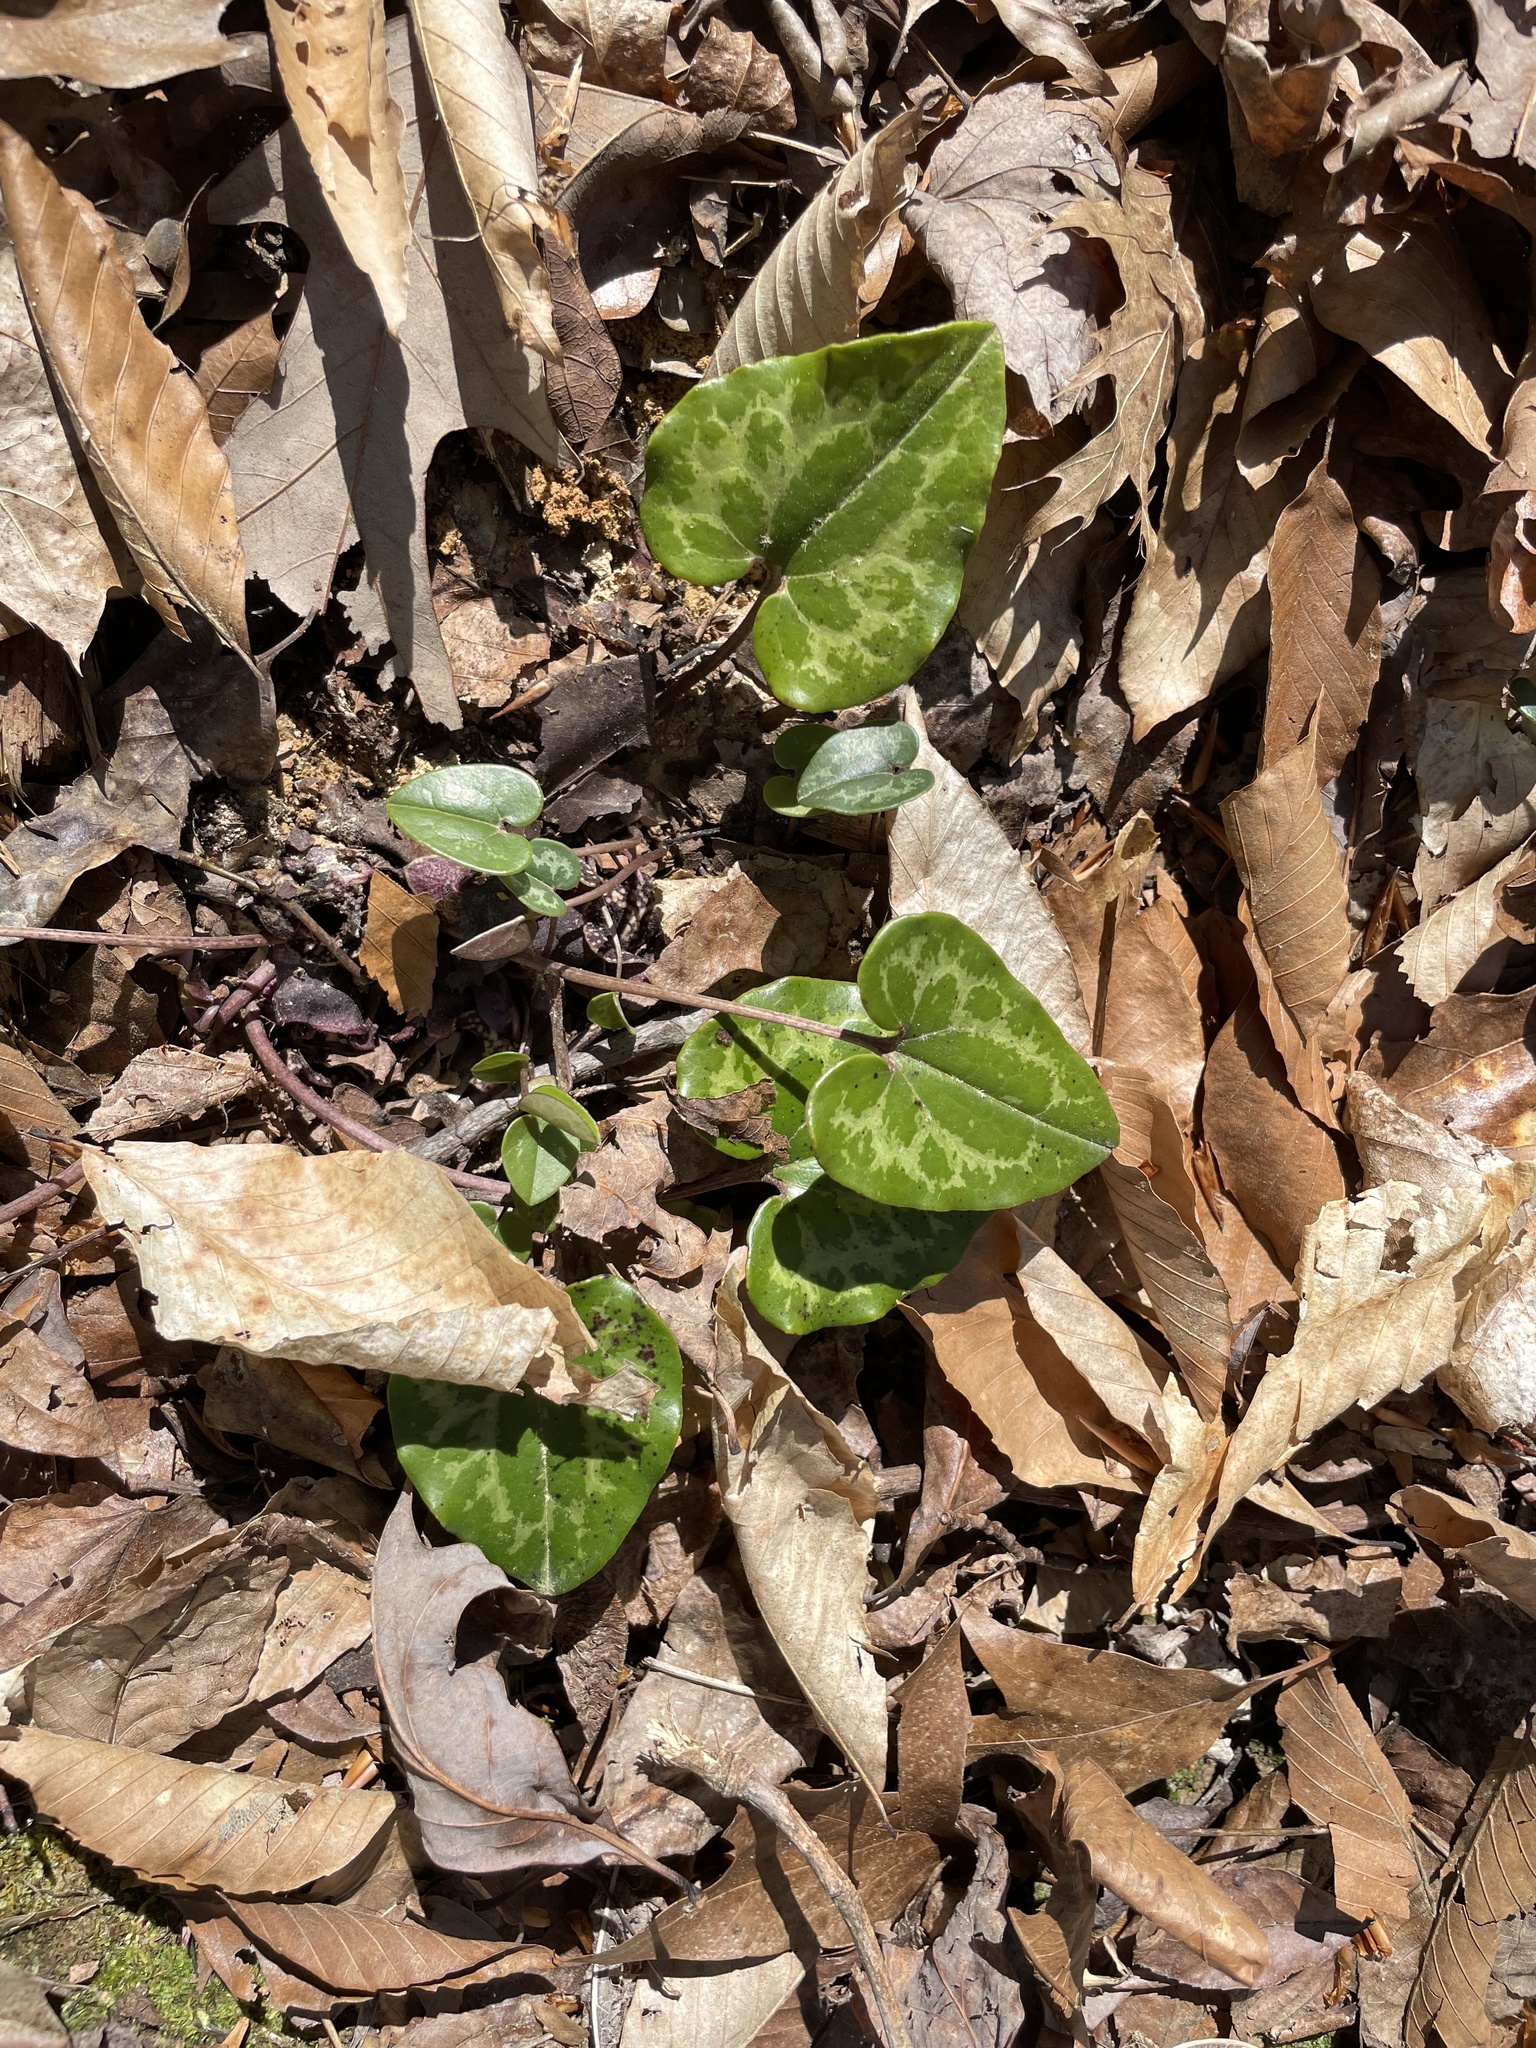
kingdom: Plantae
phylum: Tracheophyta
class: Magnoliopsida
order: Piperales
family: Aristolochiaceae
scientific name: Aristolochiaceae
